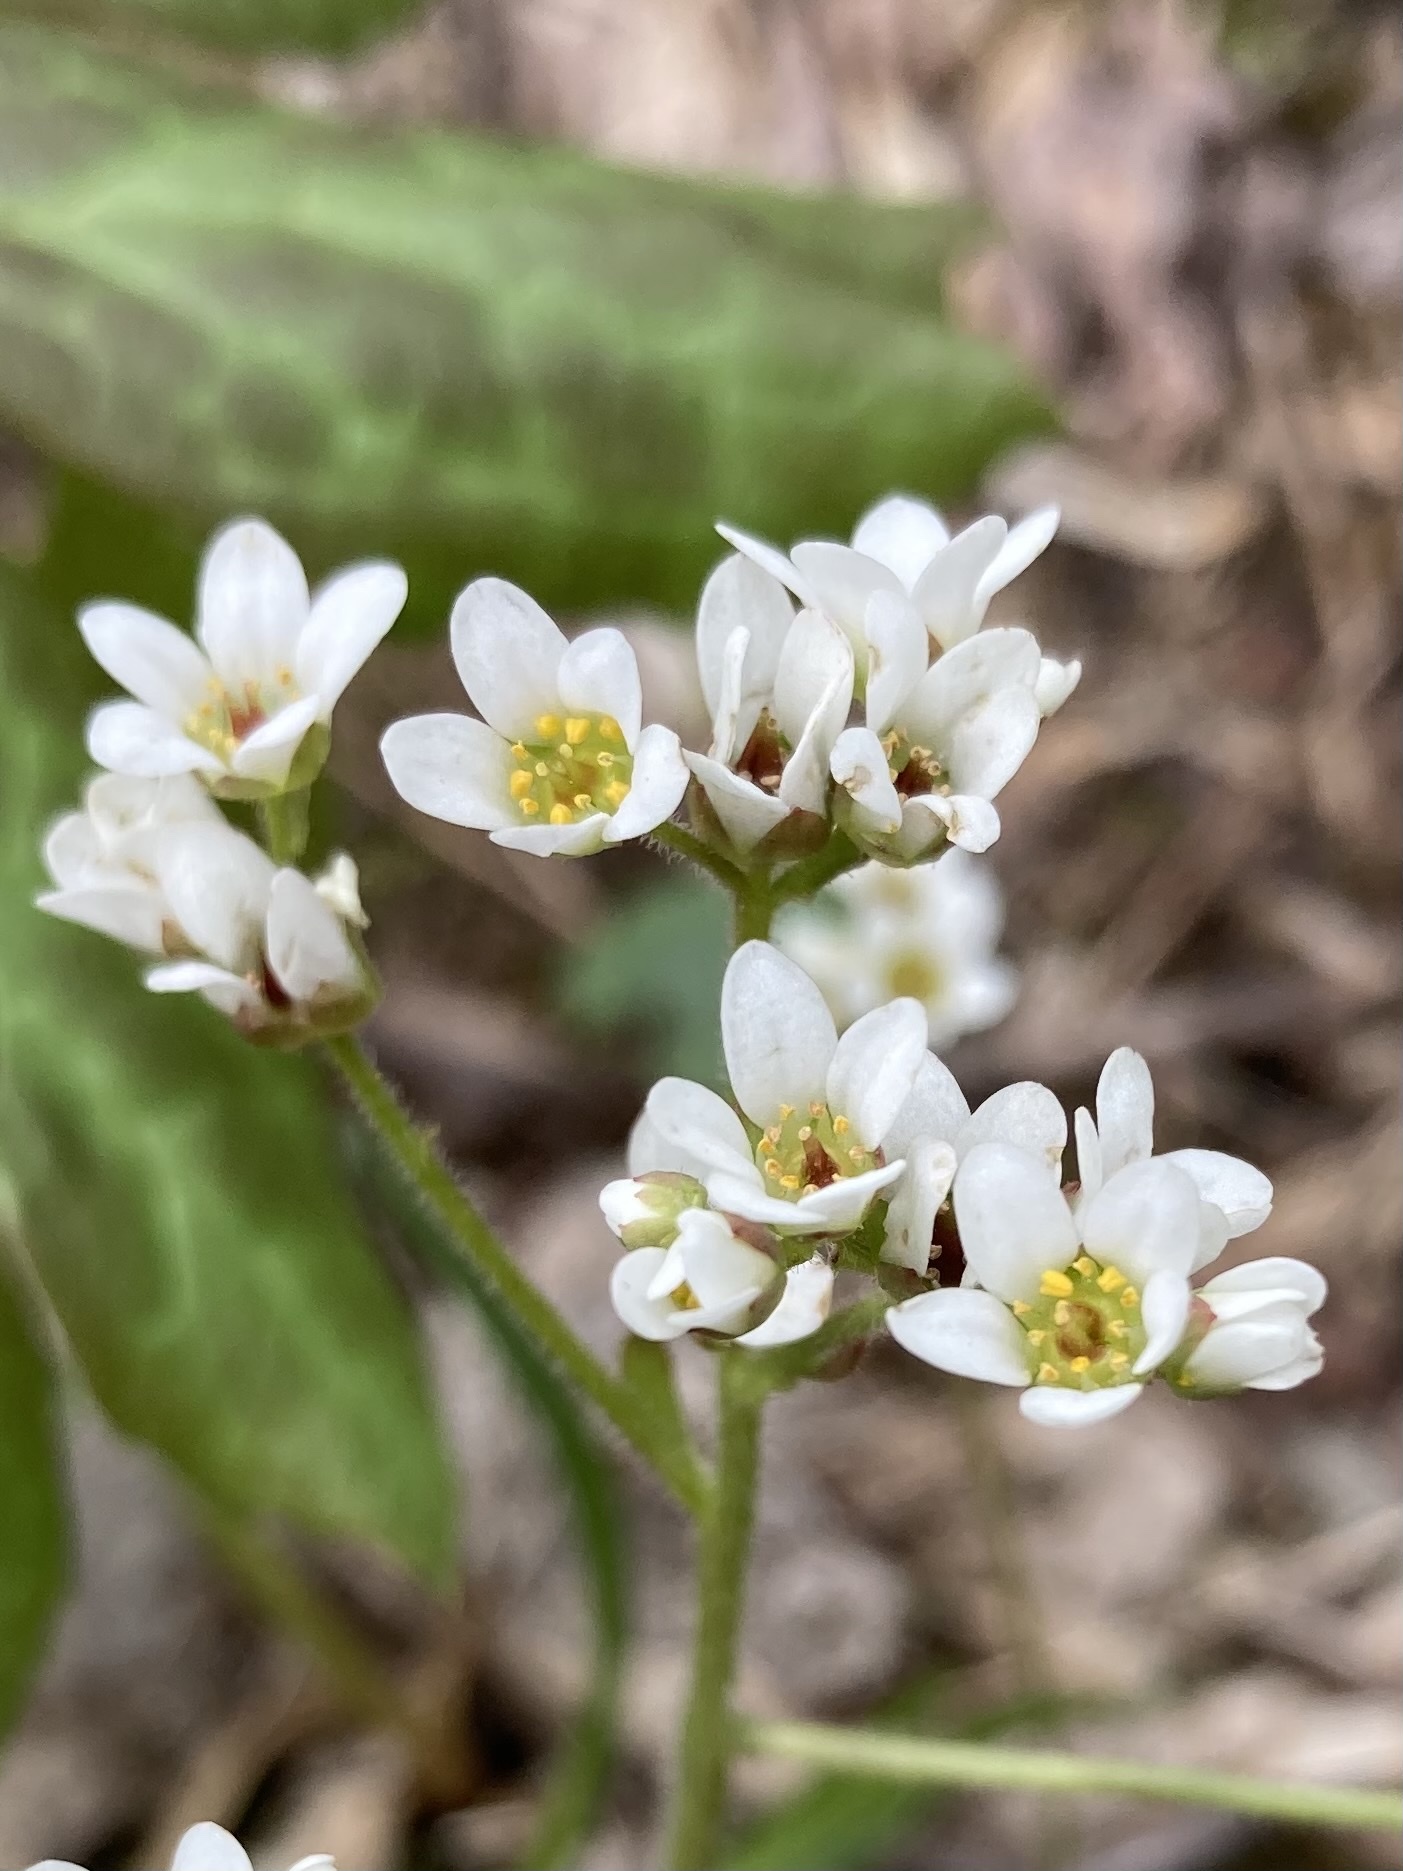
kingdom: Plantae
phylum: Tracheophyta
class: Magnoliopsida
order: Saxifragales
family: Saxifragaceae
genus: Micranthes
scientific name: Micranthes virginiensis
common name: Early saxifrage
